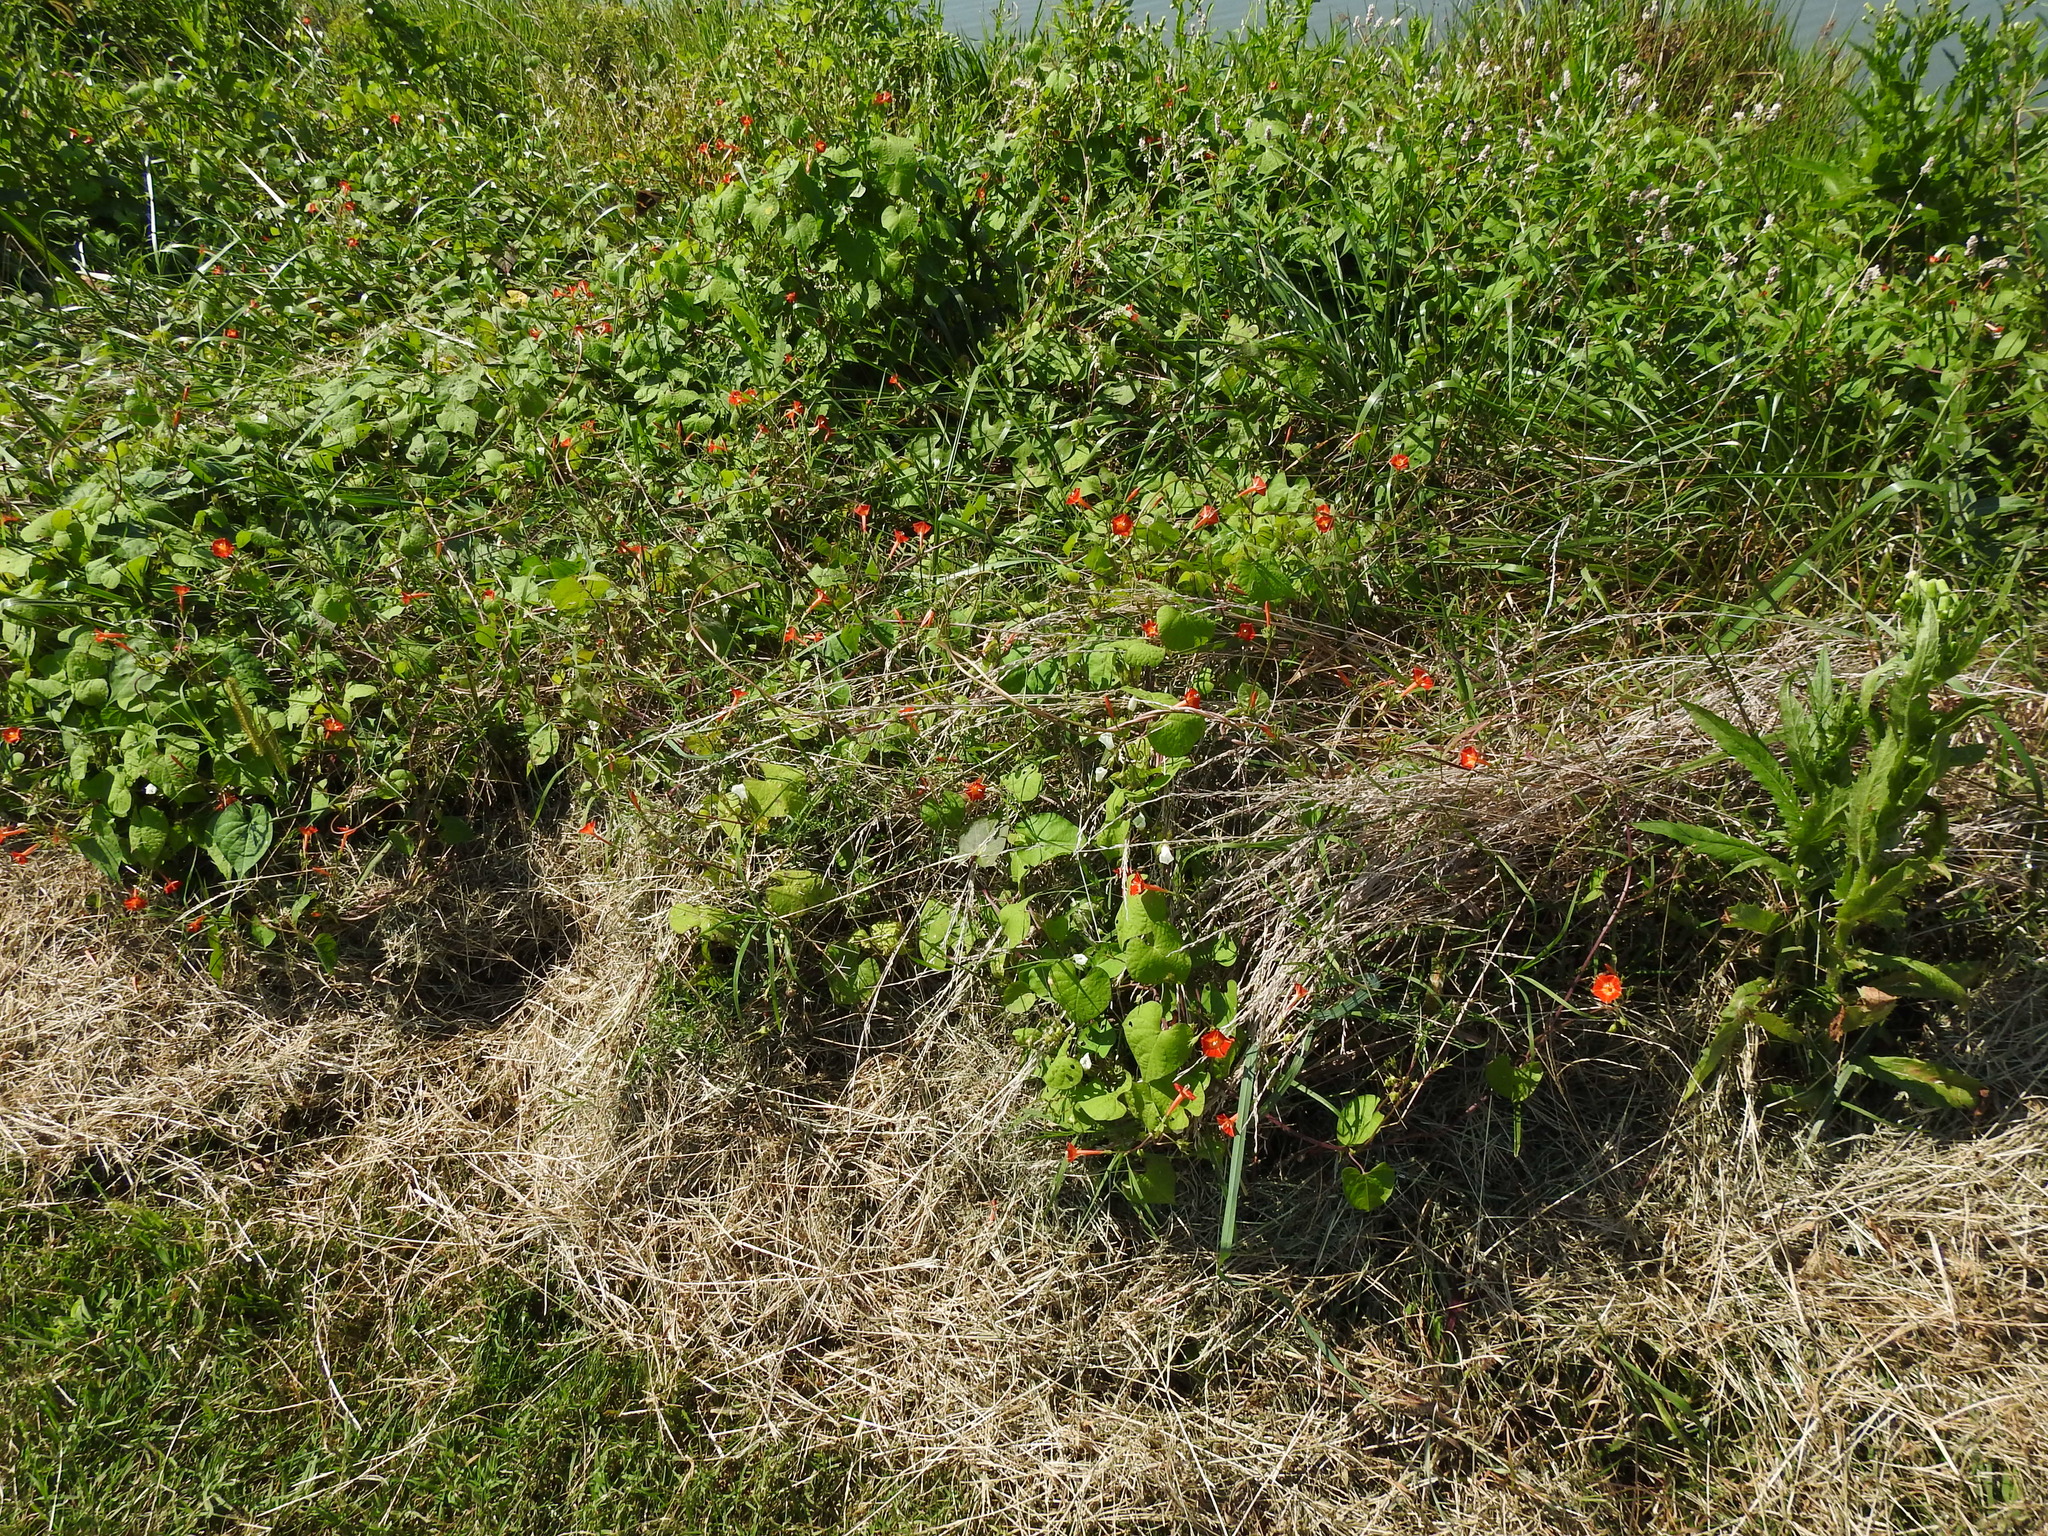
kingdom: Plantae
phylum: Tracheophyta
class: Magnoliopsida
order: Solanales
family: Convolvulaceae
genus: Ipomoea
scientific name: Ipomoea coccinea
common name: Red morning-glory
